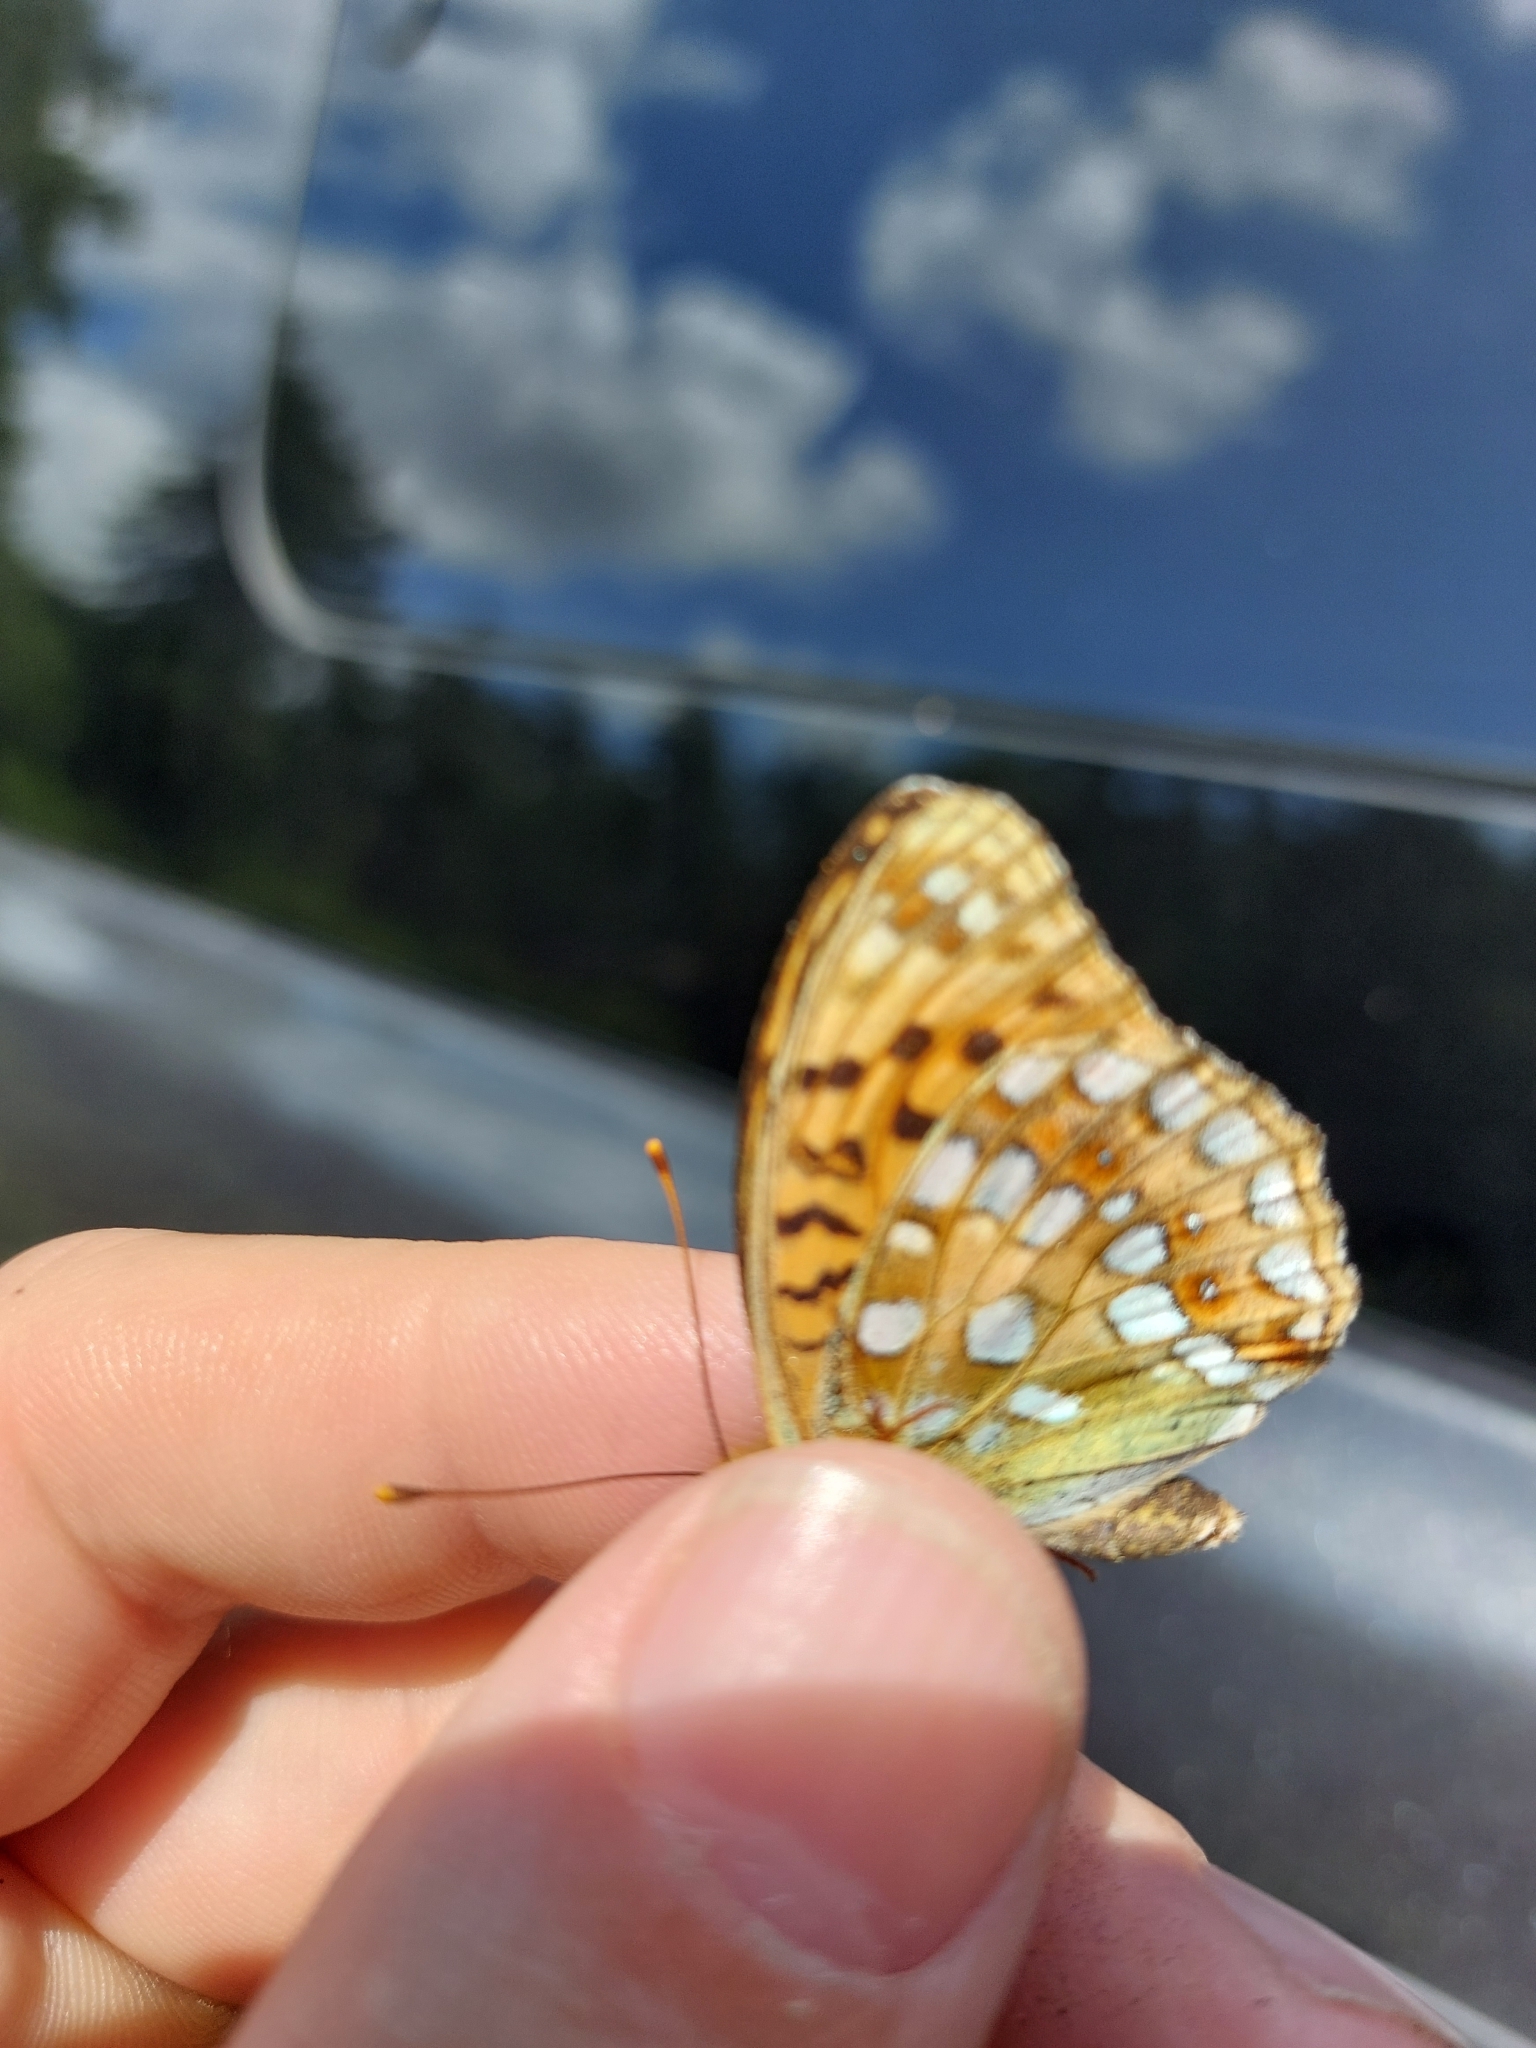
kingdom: Animalia
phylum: Arthropoda
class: Insecta
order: Lepidoptera
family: Nymphalidae
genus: Fabriciana
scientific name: Fabriciana adippe
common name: High brown fritillary
